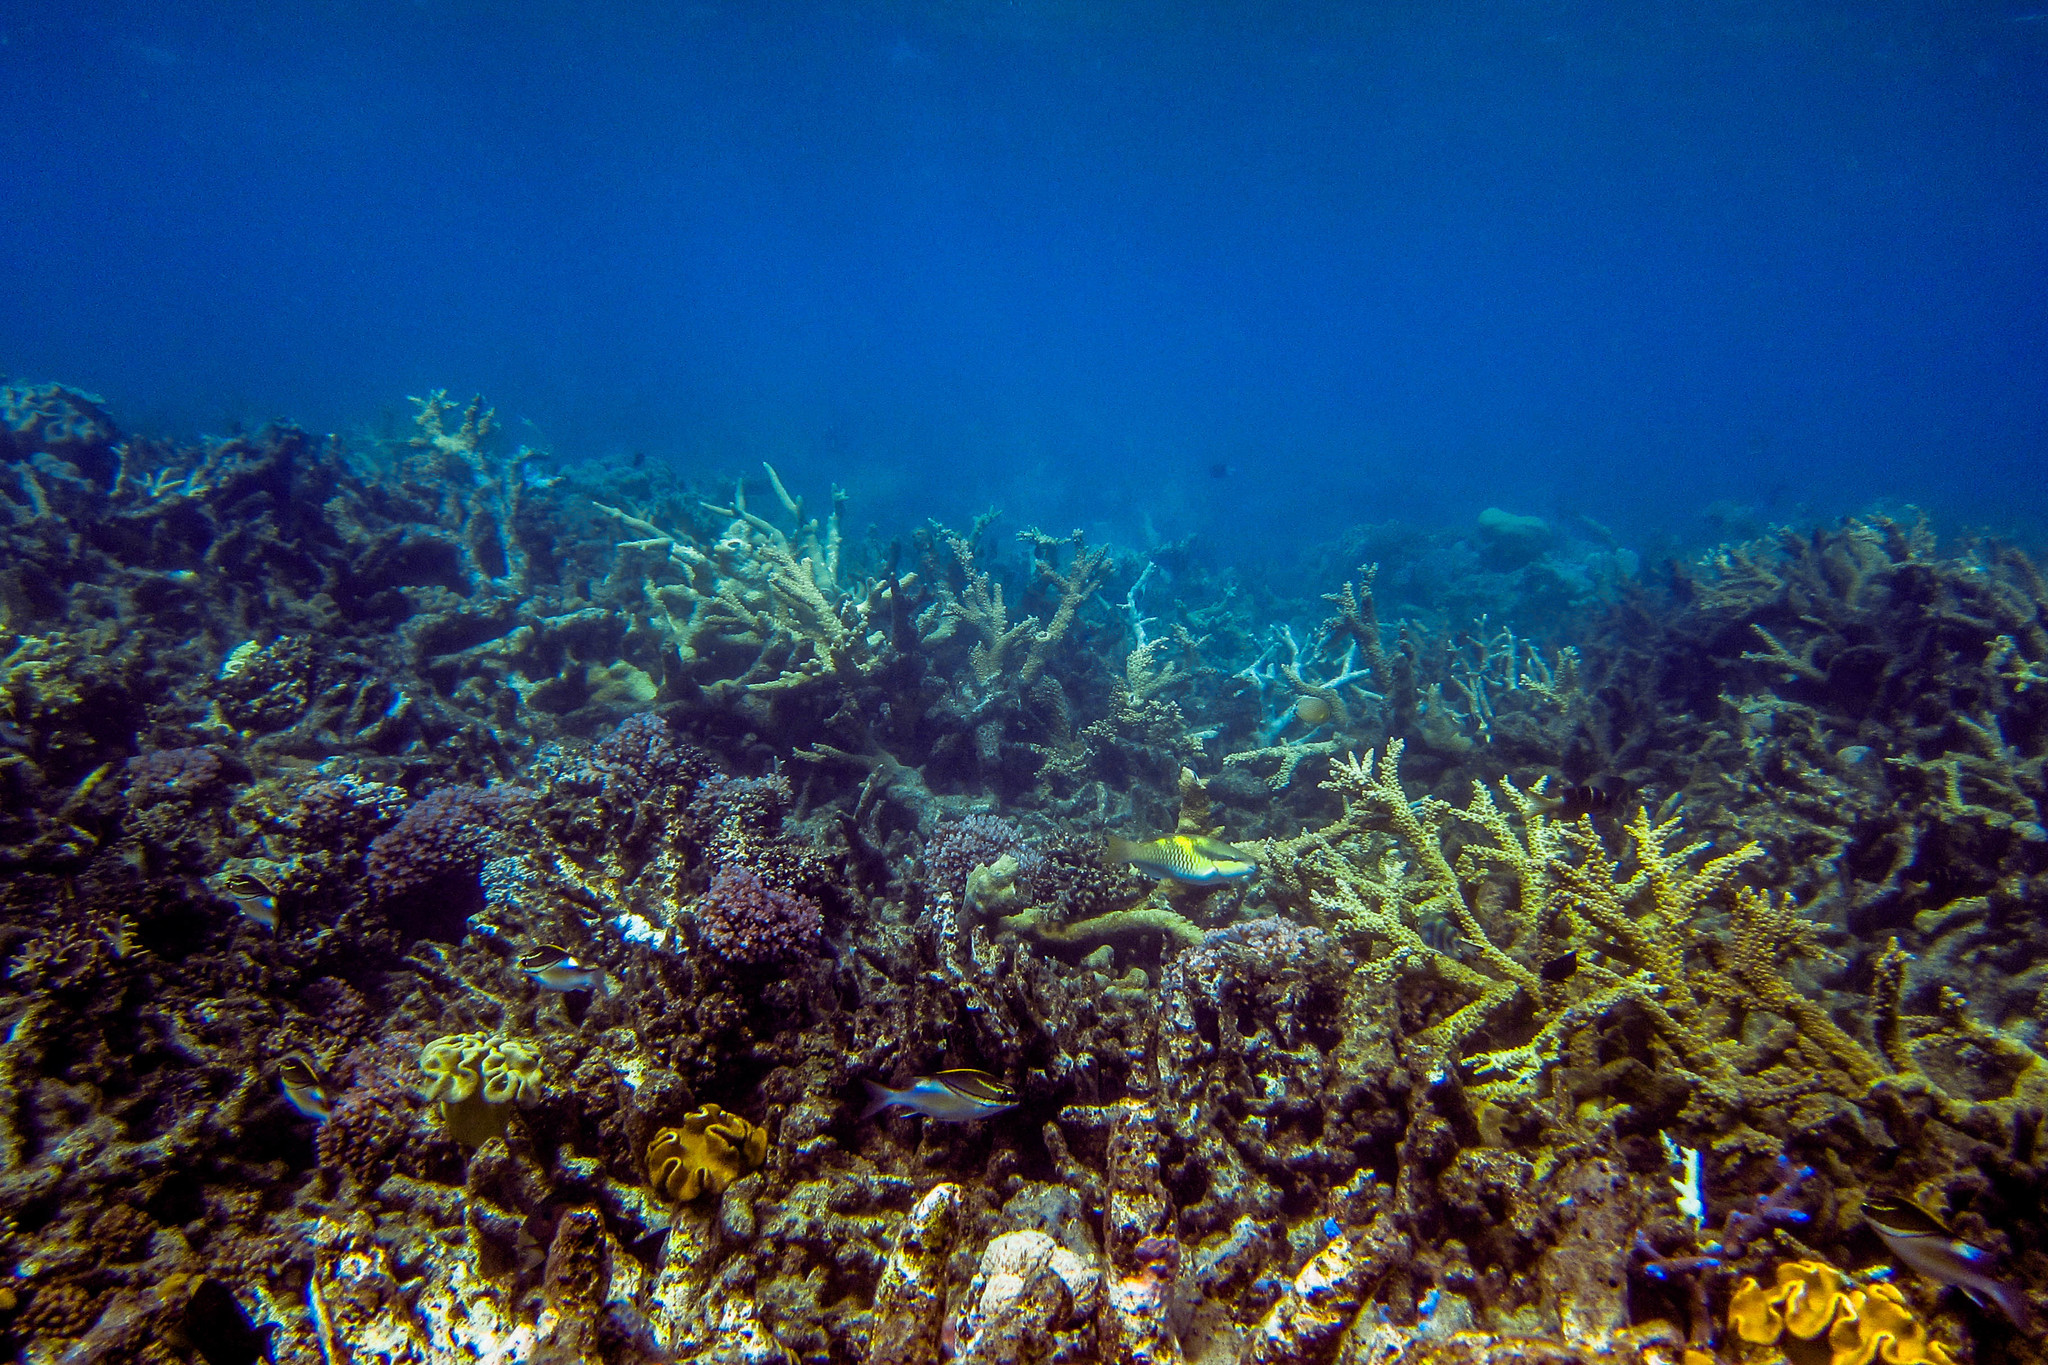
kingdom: Animalia
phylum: Chordata
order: Perciformes
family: Nemipteridae
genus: Scolopsis
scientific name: Scolopsis bilineata
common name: Two-lined monocle bream
